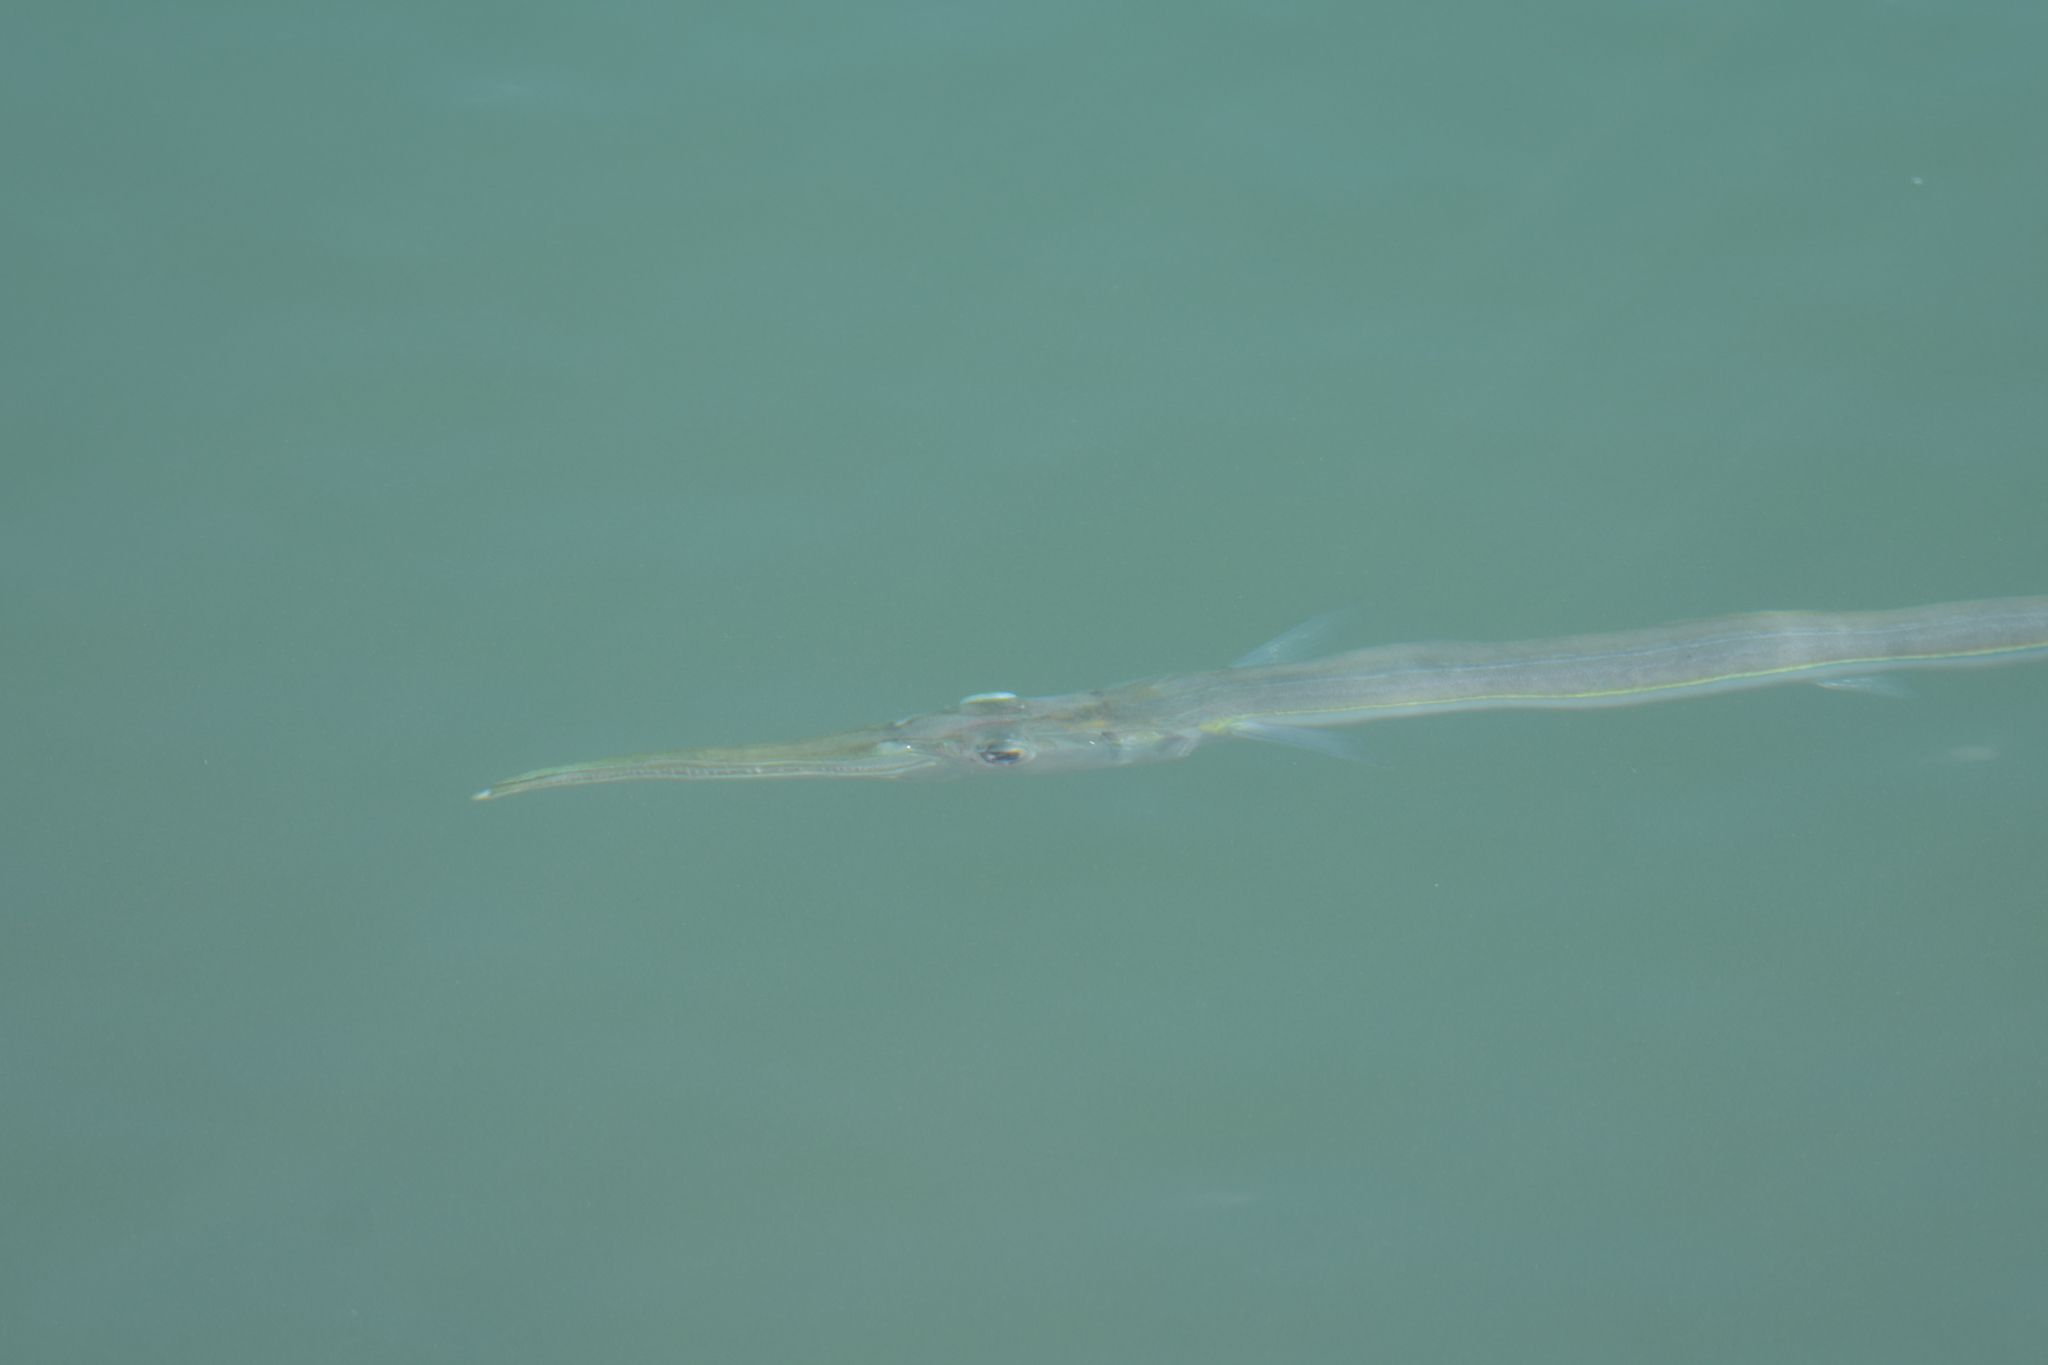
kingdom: Animalia
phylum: Chordata
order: Beloniformes
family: Belonidae
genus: Strongylura
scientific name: Strongylura marina
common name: Atlantic needlefish
